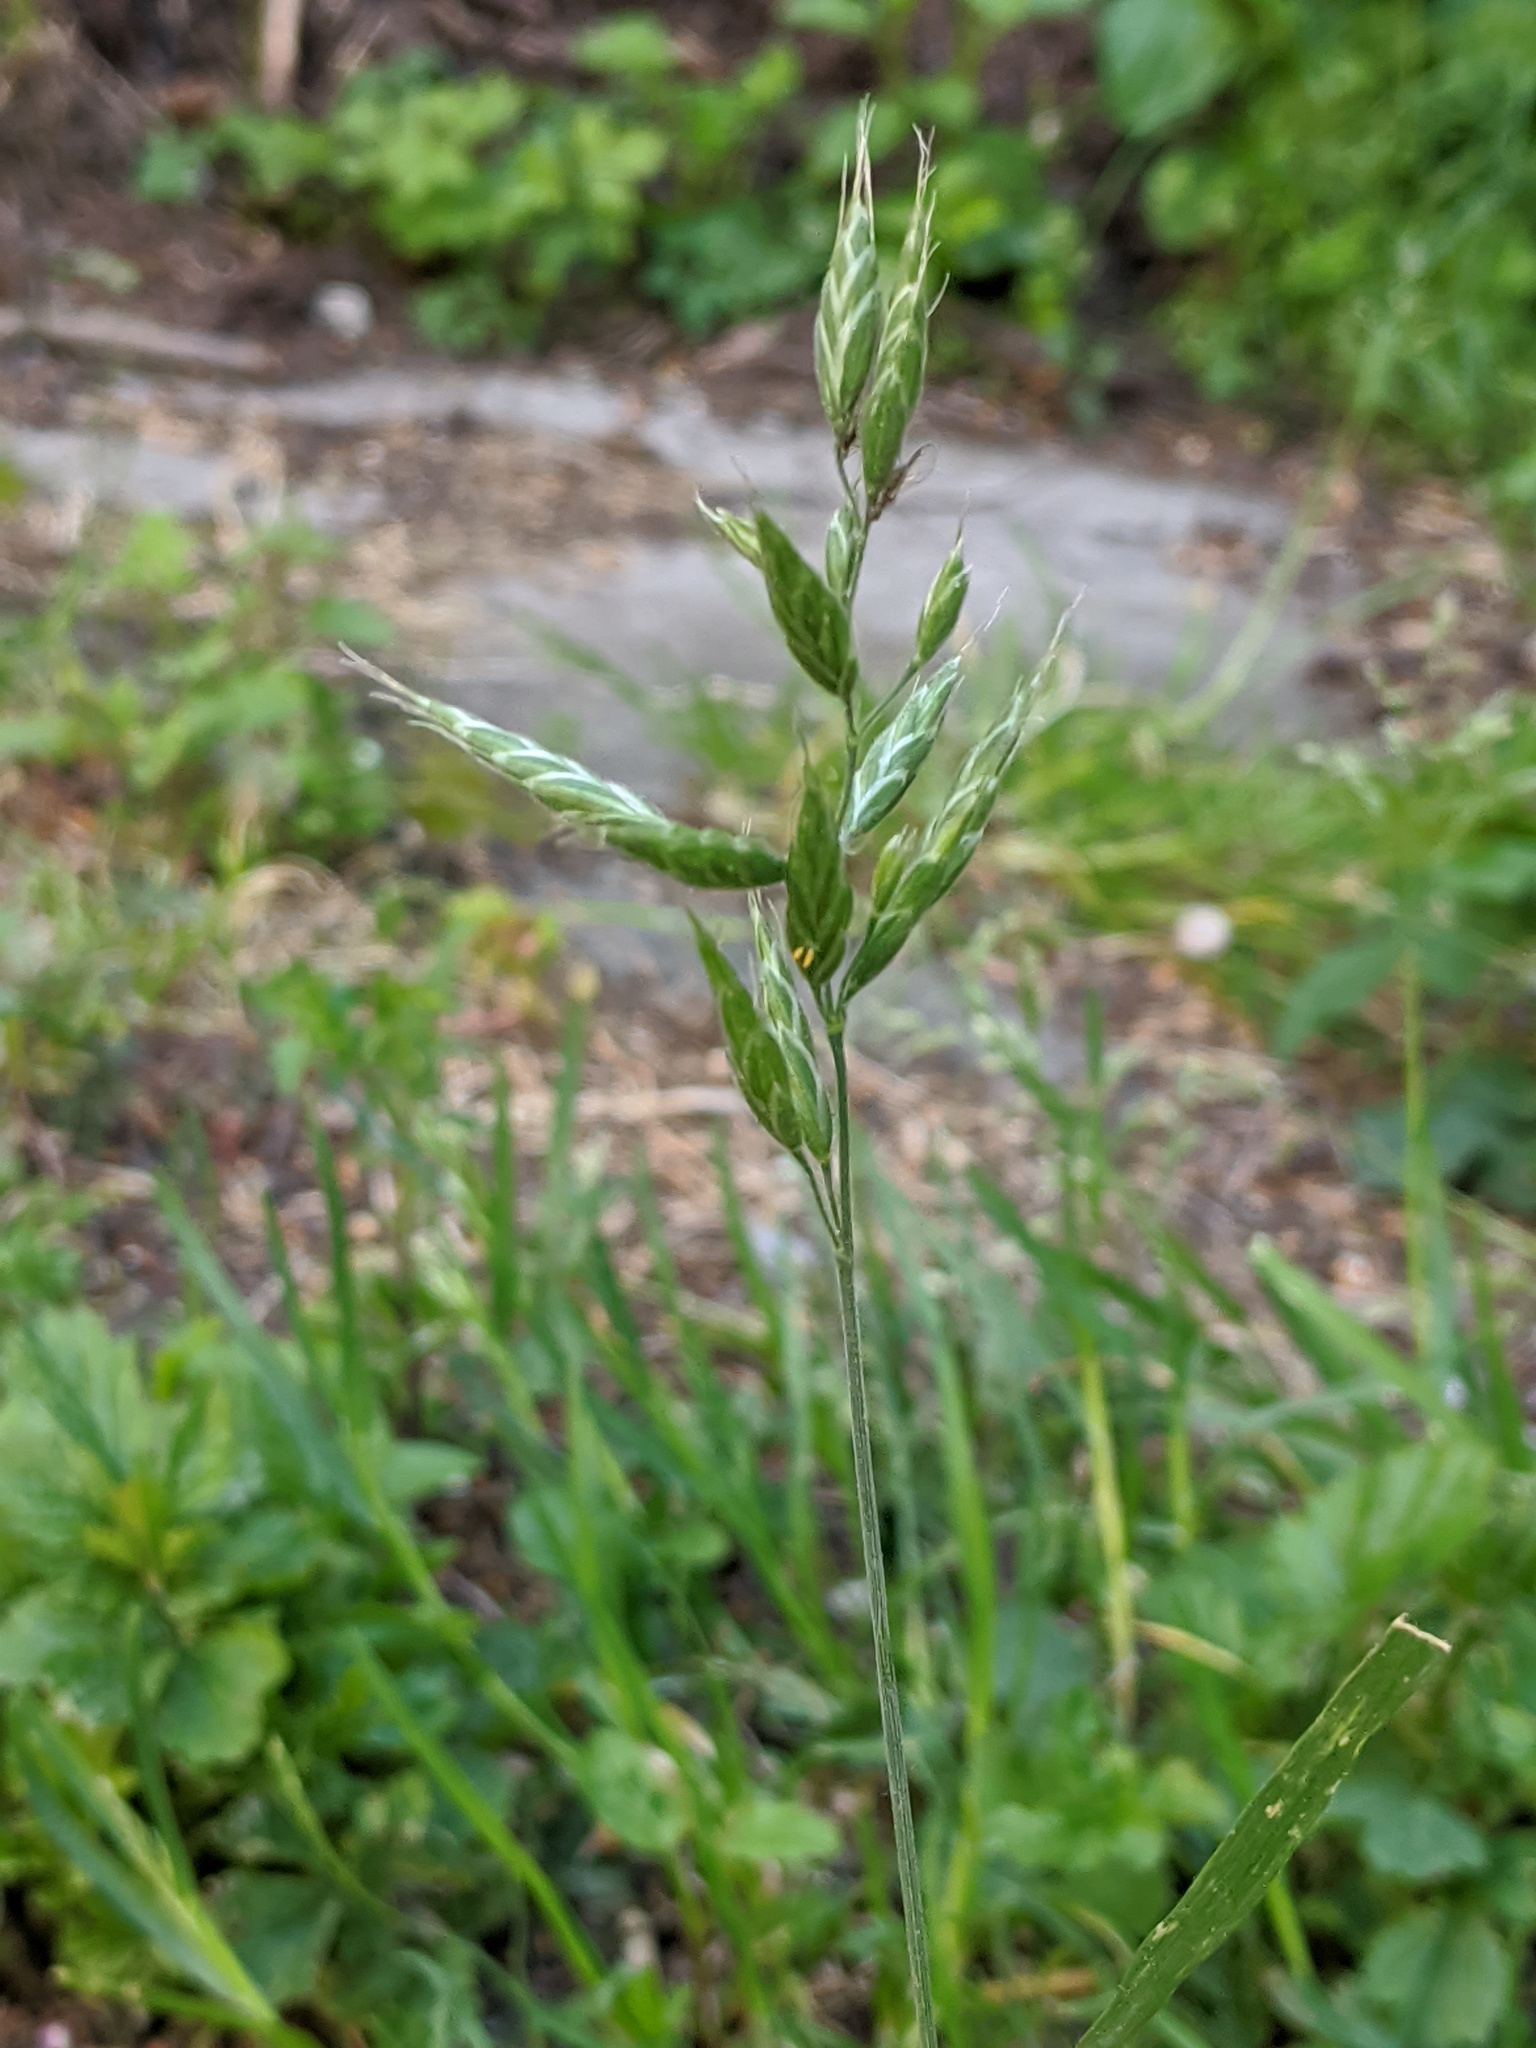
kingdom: Plantae
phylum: Tracheophyta
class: Liliopsida
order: Poales
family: Poaceae
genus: Bromus
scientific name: Bromus hordeaceus
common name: Soft brome
